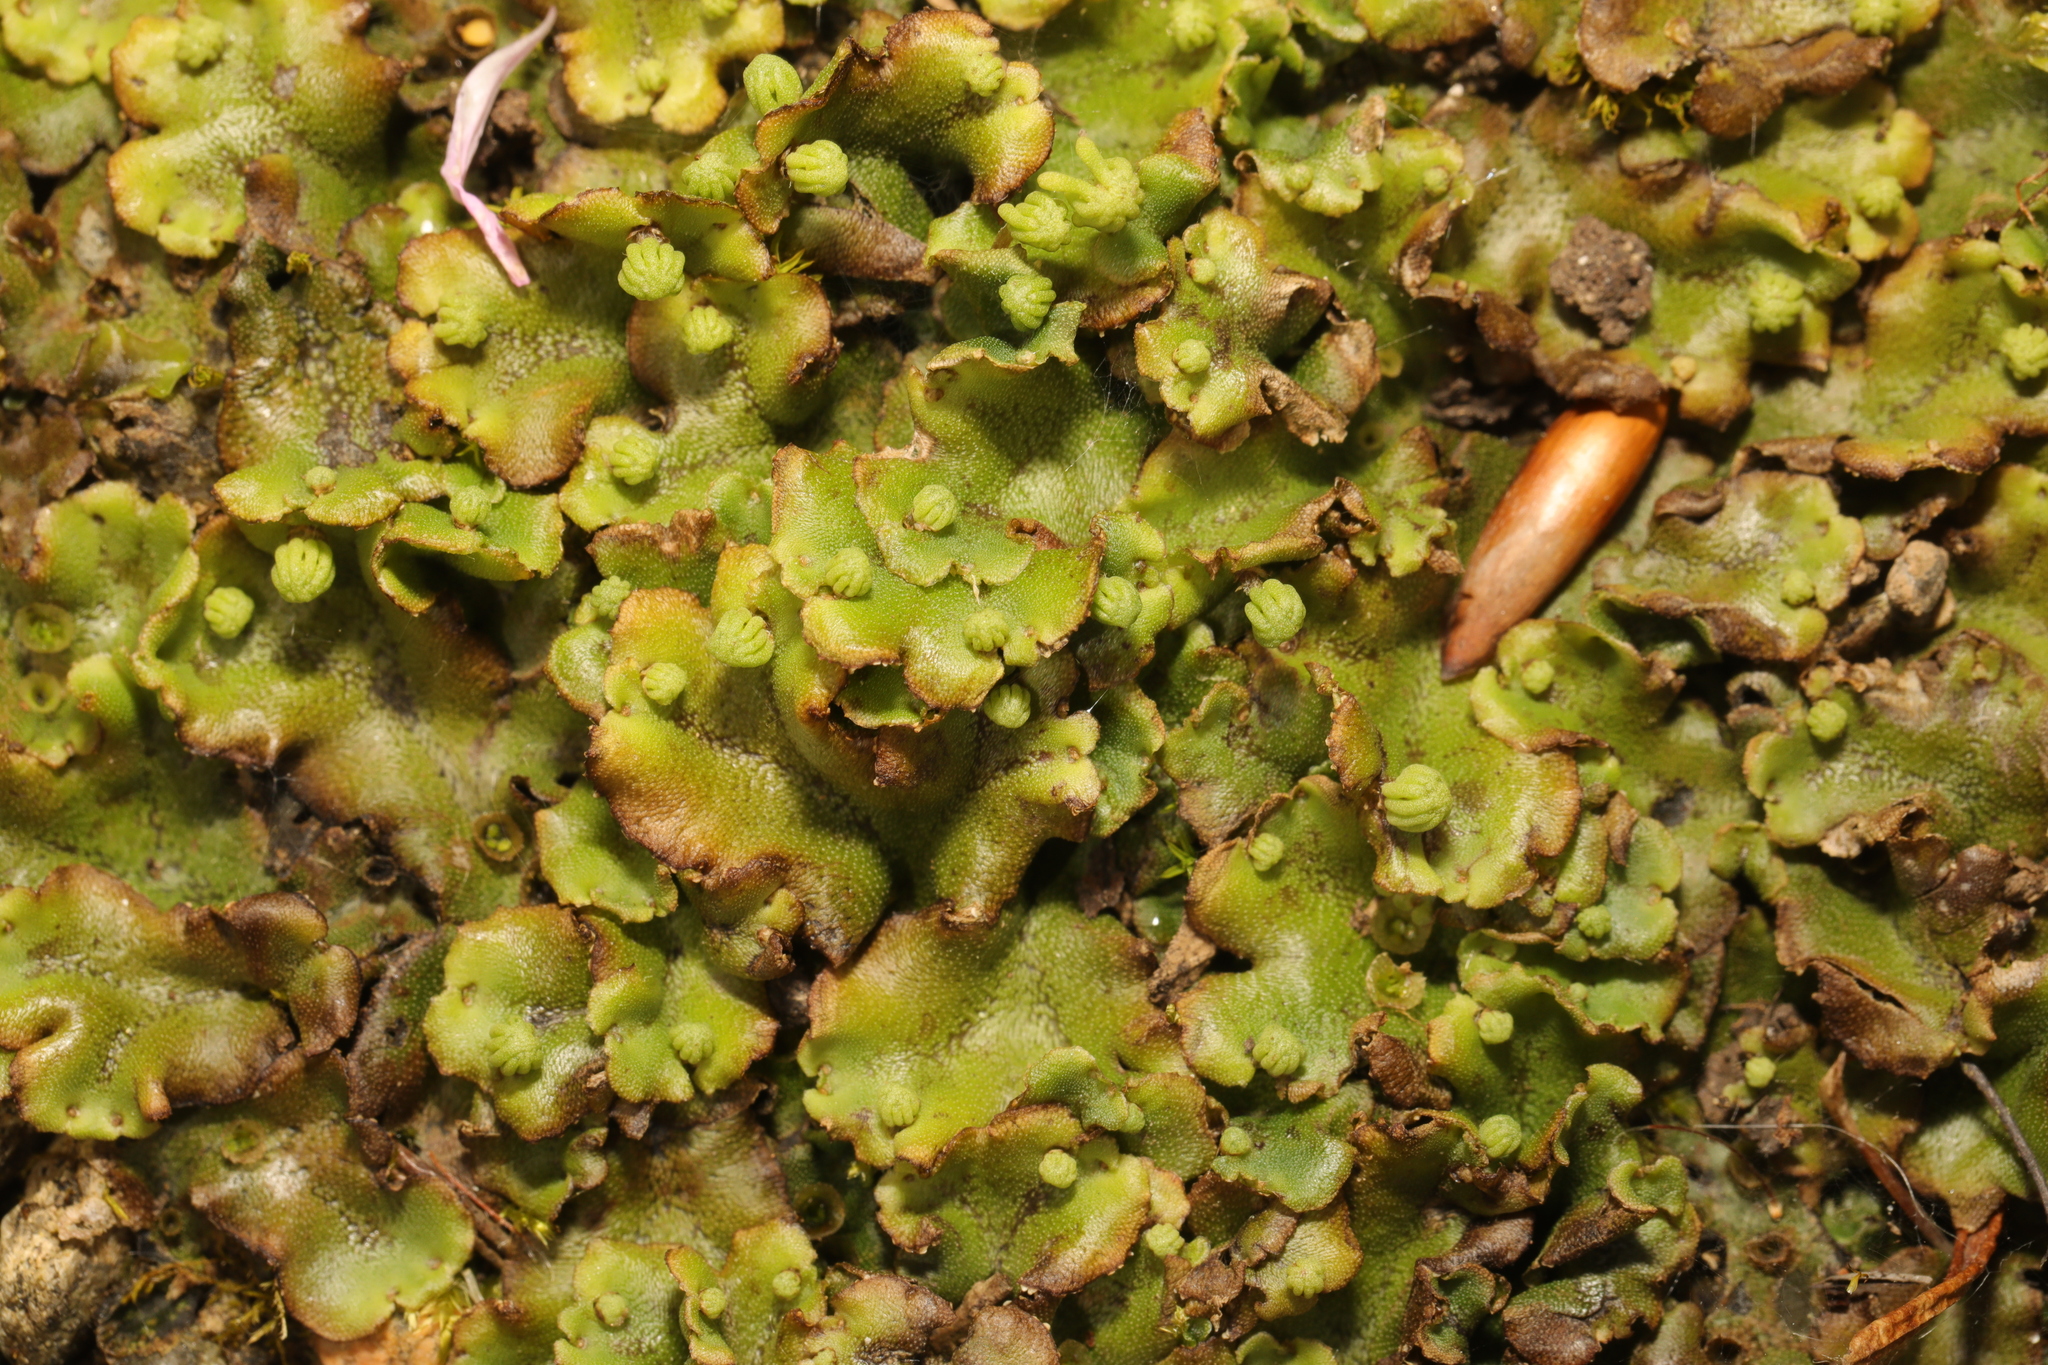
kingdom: Plantae
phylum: Marchantiophyta
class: Marchantiopsida
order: Marchantiales
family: Marchantiaceae
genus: Marchantia
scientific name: Marchantia polymorpha
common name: Common liverwort
